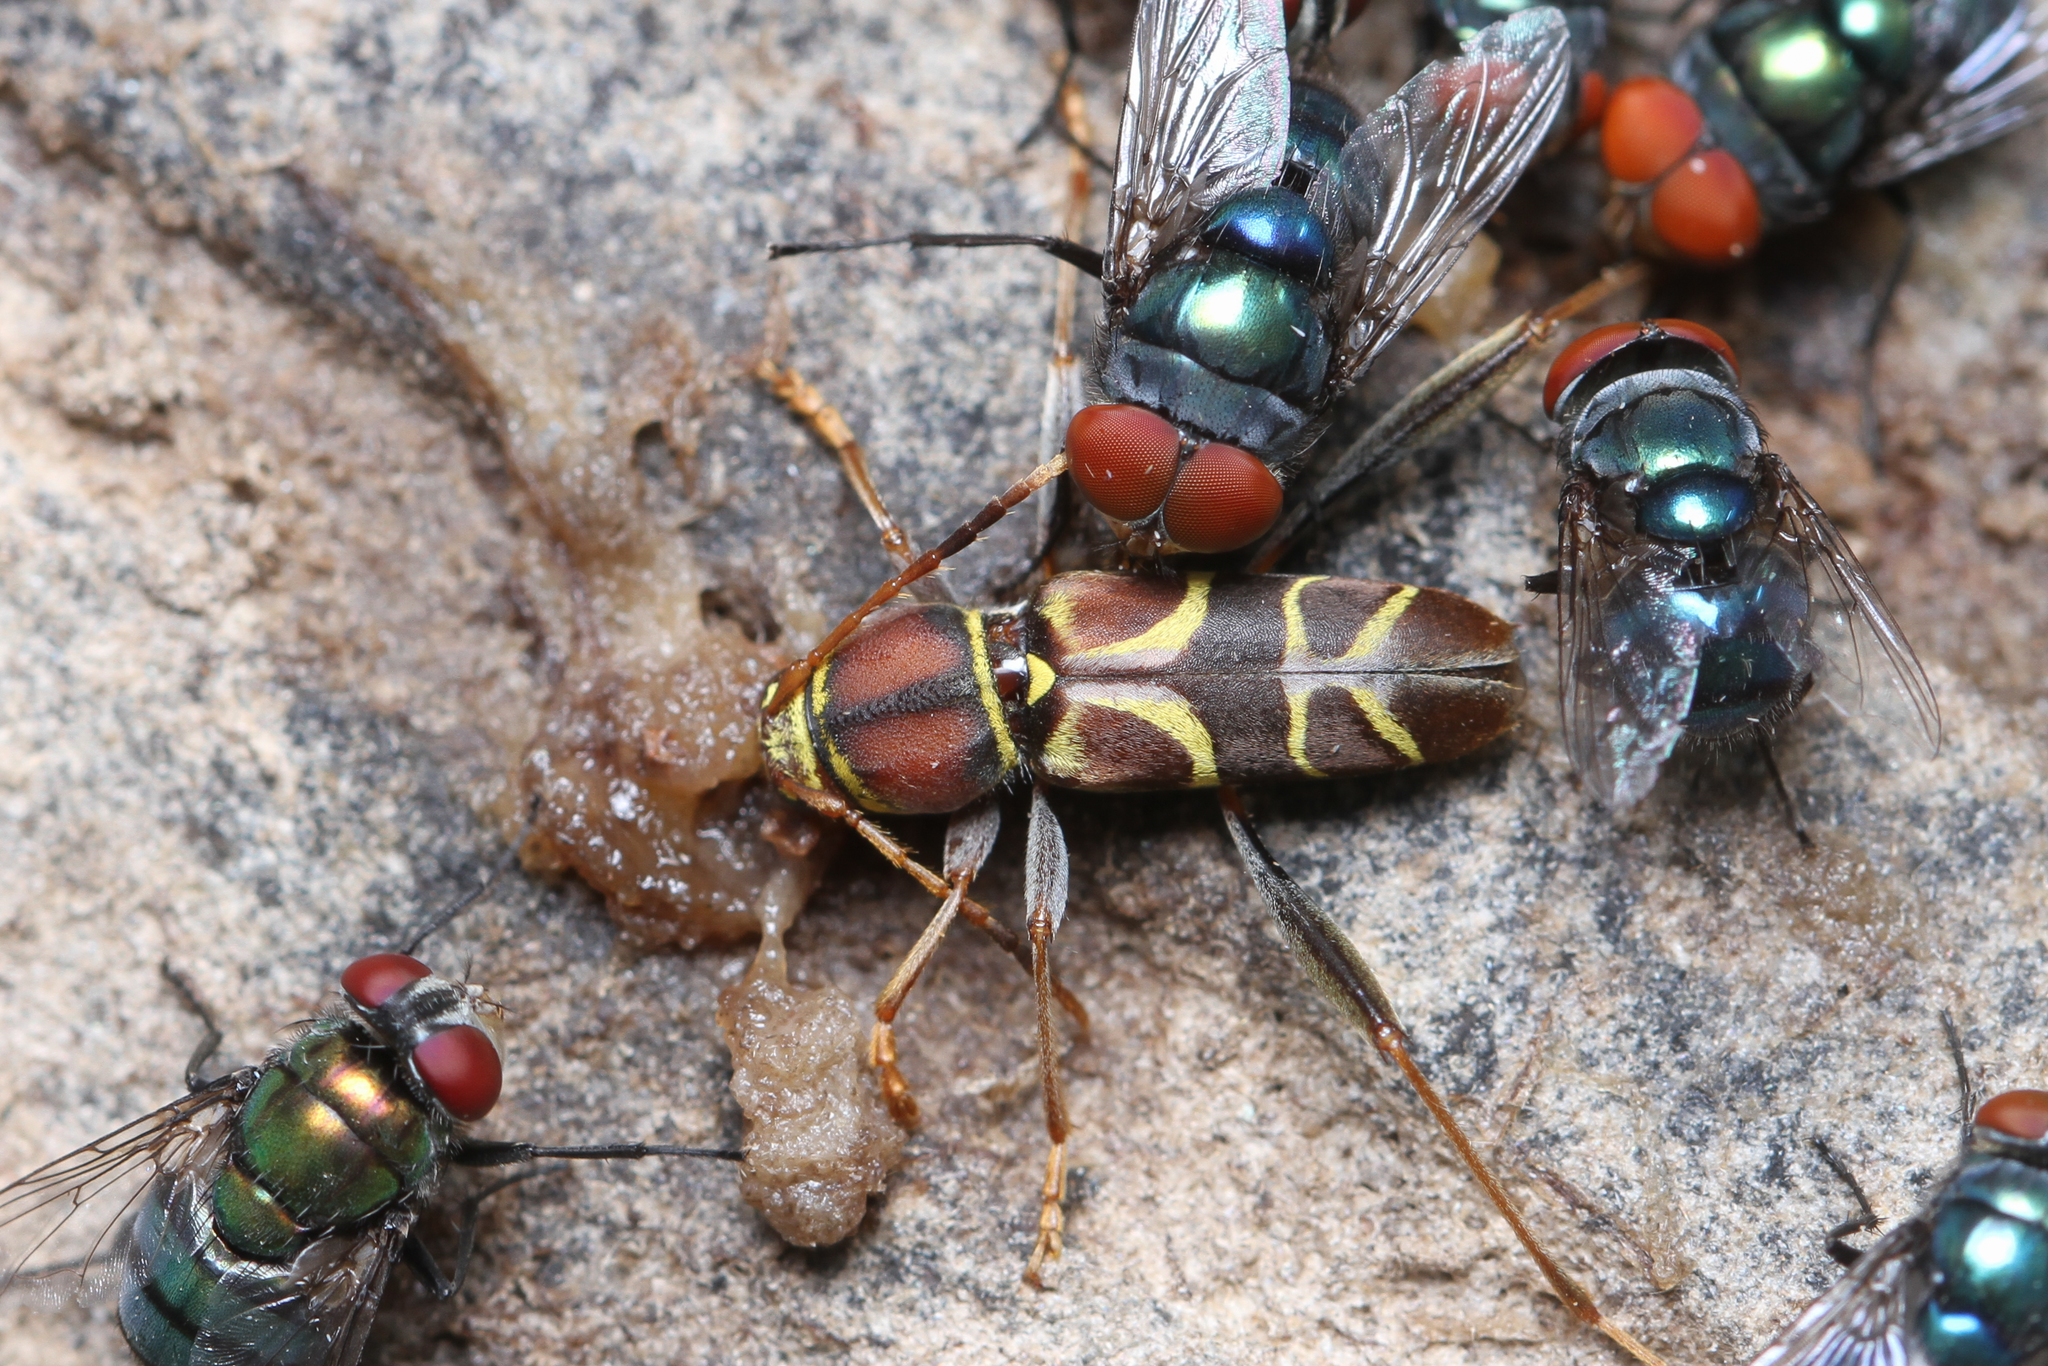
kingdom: Animalia
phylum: Arthropoda
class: Insecta
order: Coleoptera
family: Cerambycidae
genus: Neoclytus
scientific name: Neoclytus mucronatus
